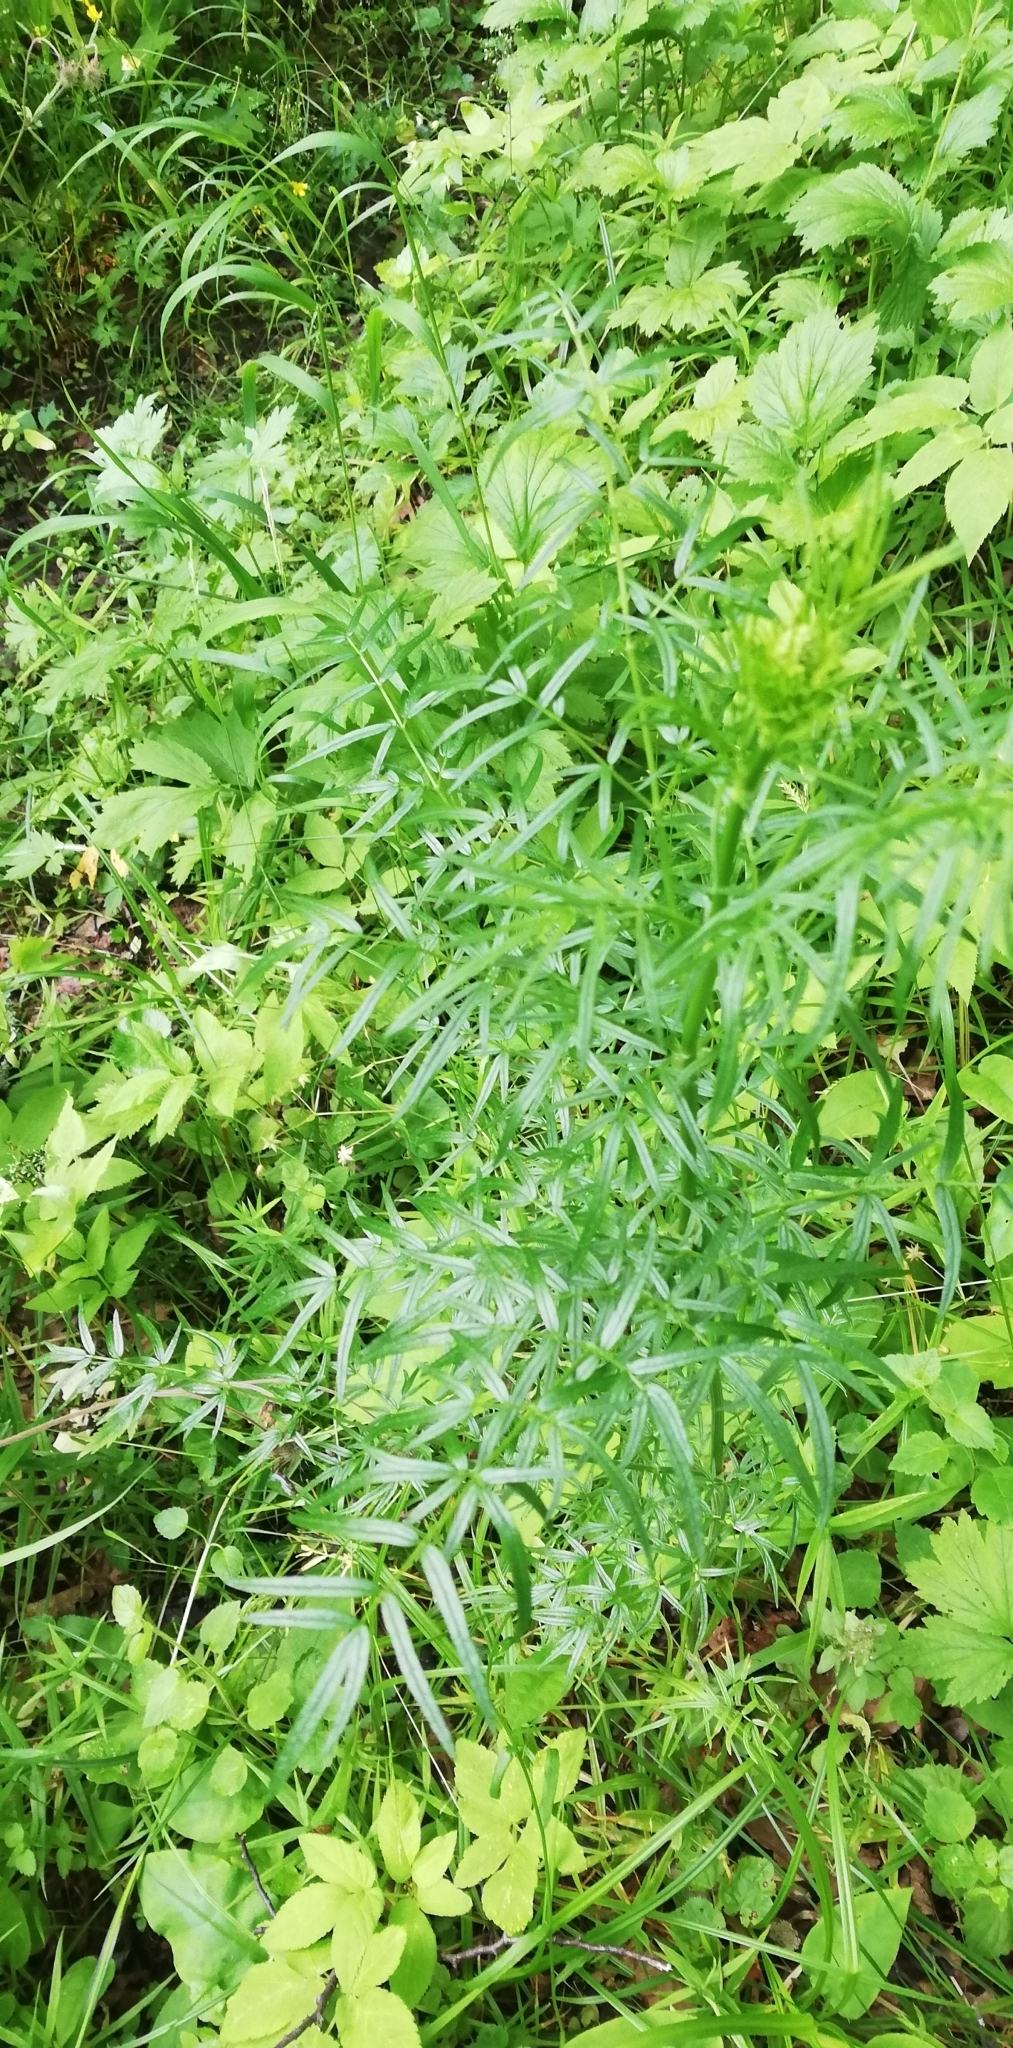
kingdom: Plantae
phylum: Tracheophyta
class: Magnoliopsida
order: Ranunculales
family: Ranunculaceae
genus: Thalictrum
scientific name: Thalictrum lucidum
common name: Shining meadow-rue
